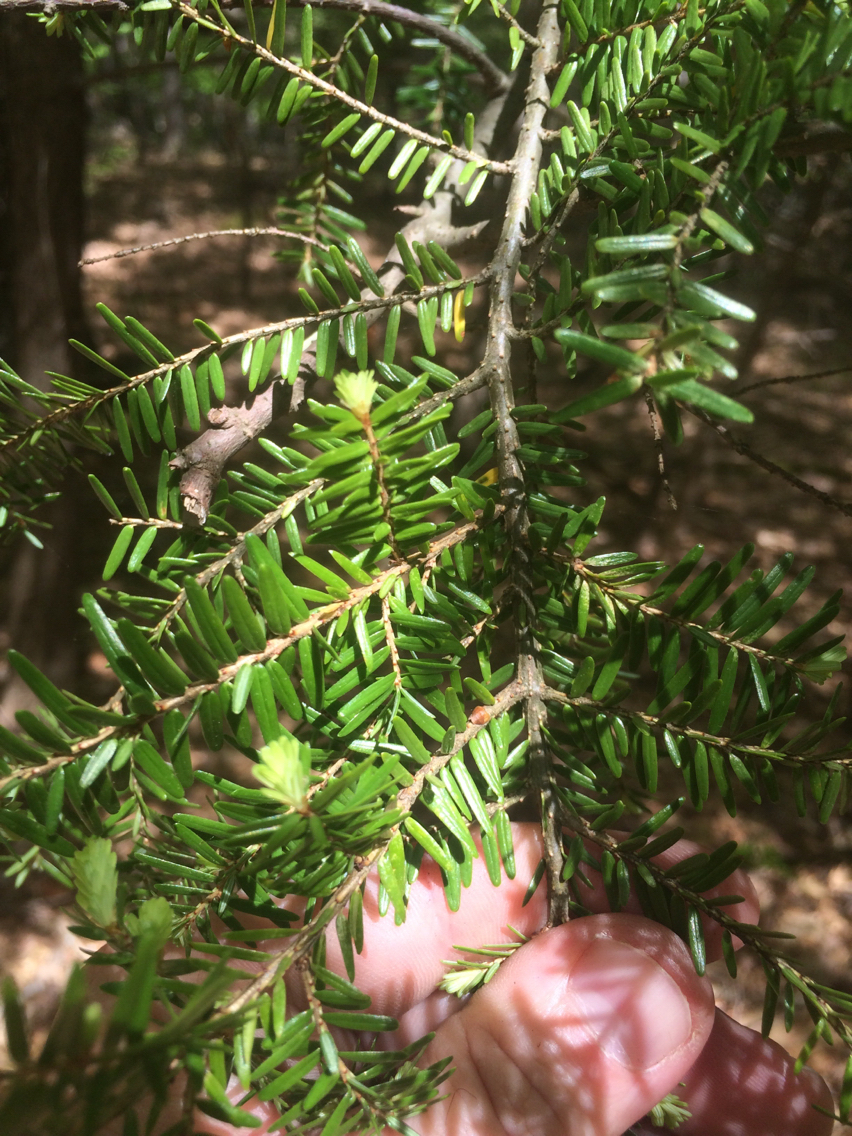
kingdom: Plantae
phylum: Tracheophyta
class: Pinopsida
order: Pinales
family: Pinaceae
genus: Tsuga
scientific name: Tsuga canadensis
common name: Eastern hemlock
